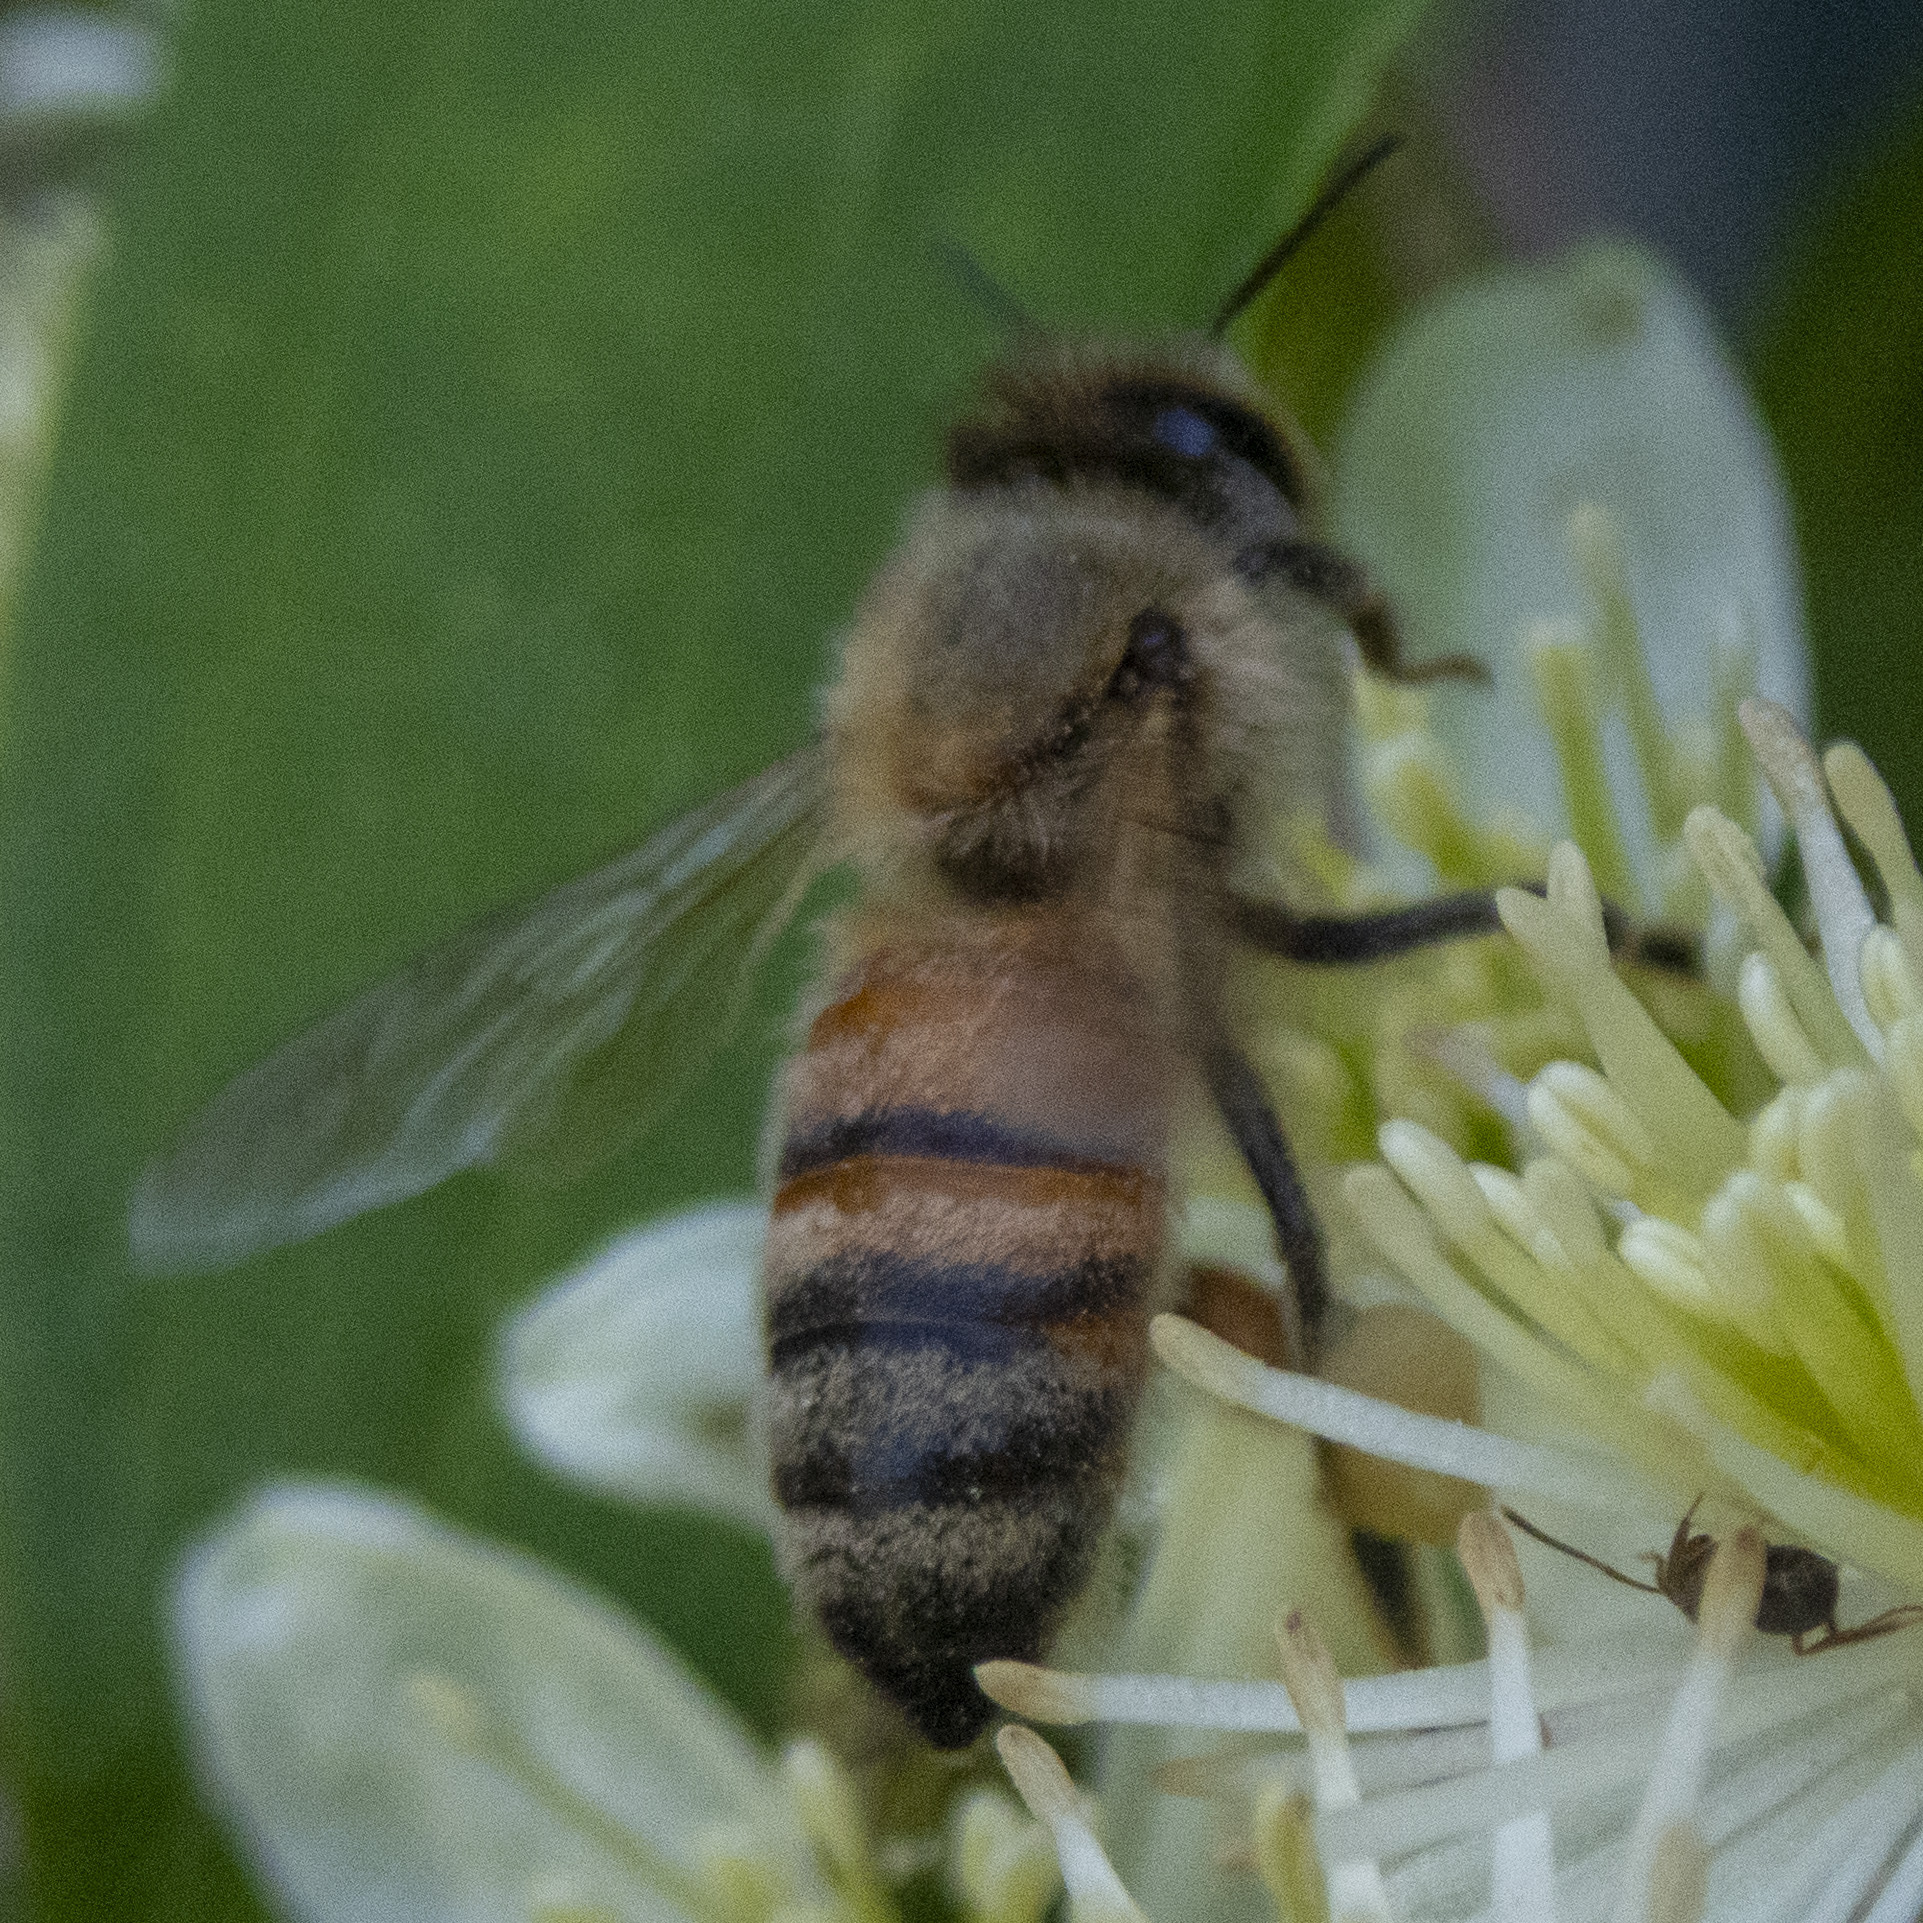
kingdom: Animalia
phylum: Arthropoda
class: Insecta
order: Hymenoptera
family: Apidae
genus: Apis
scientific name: Apis mellifera
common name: Honey bee
